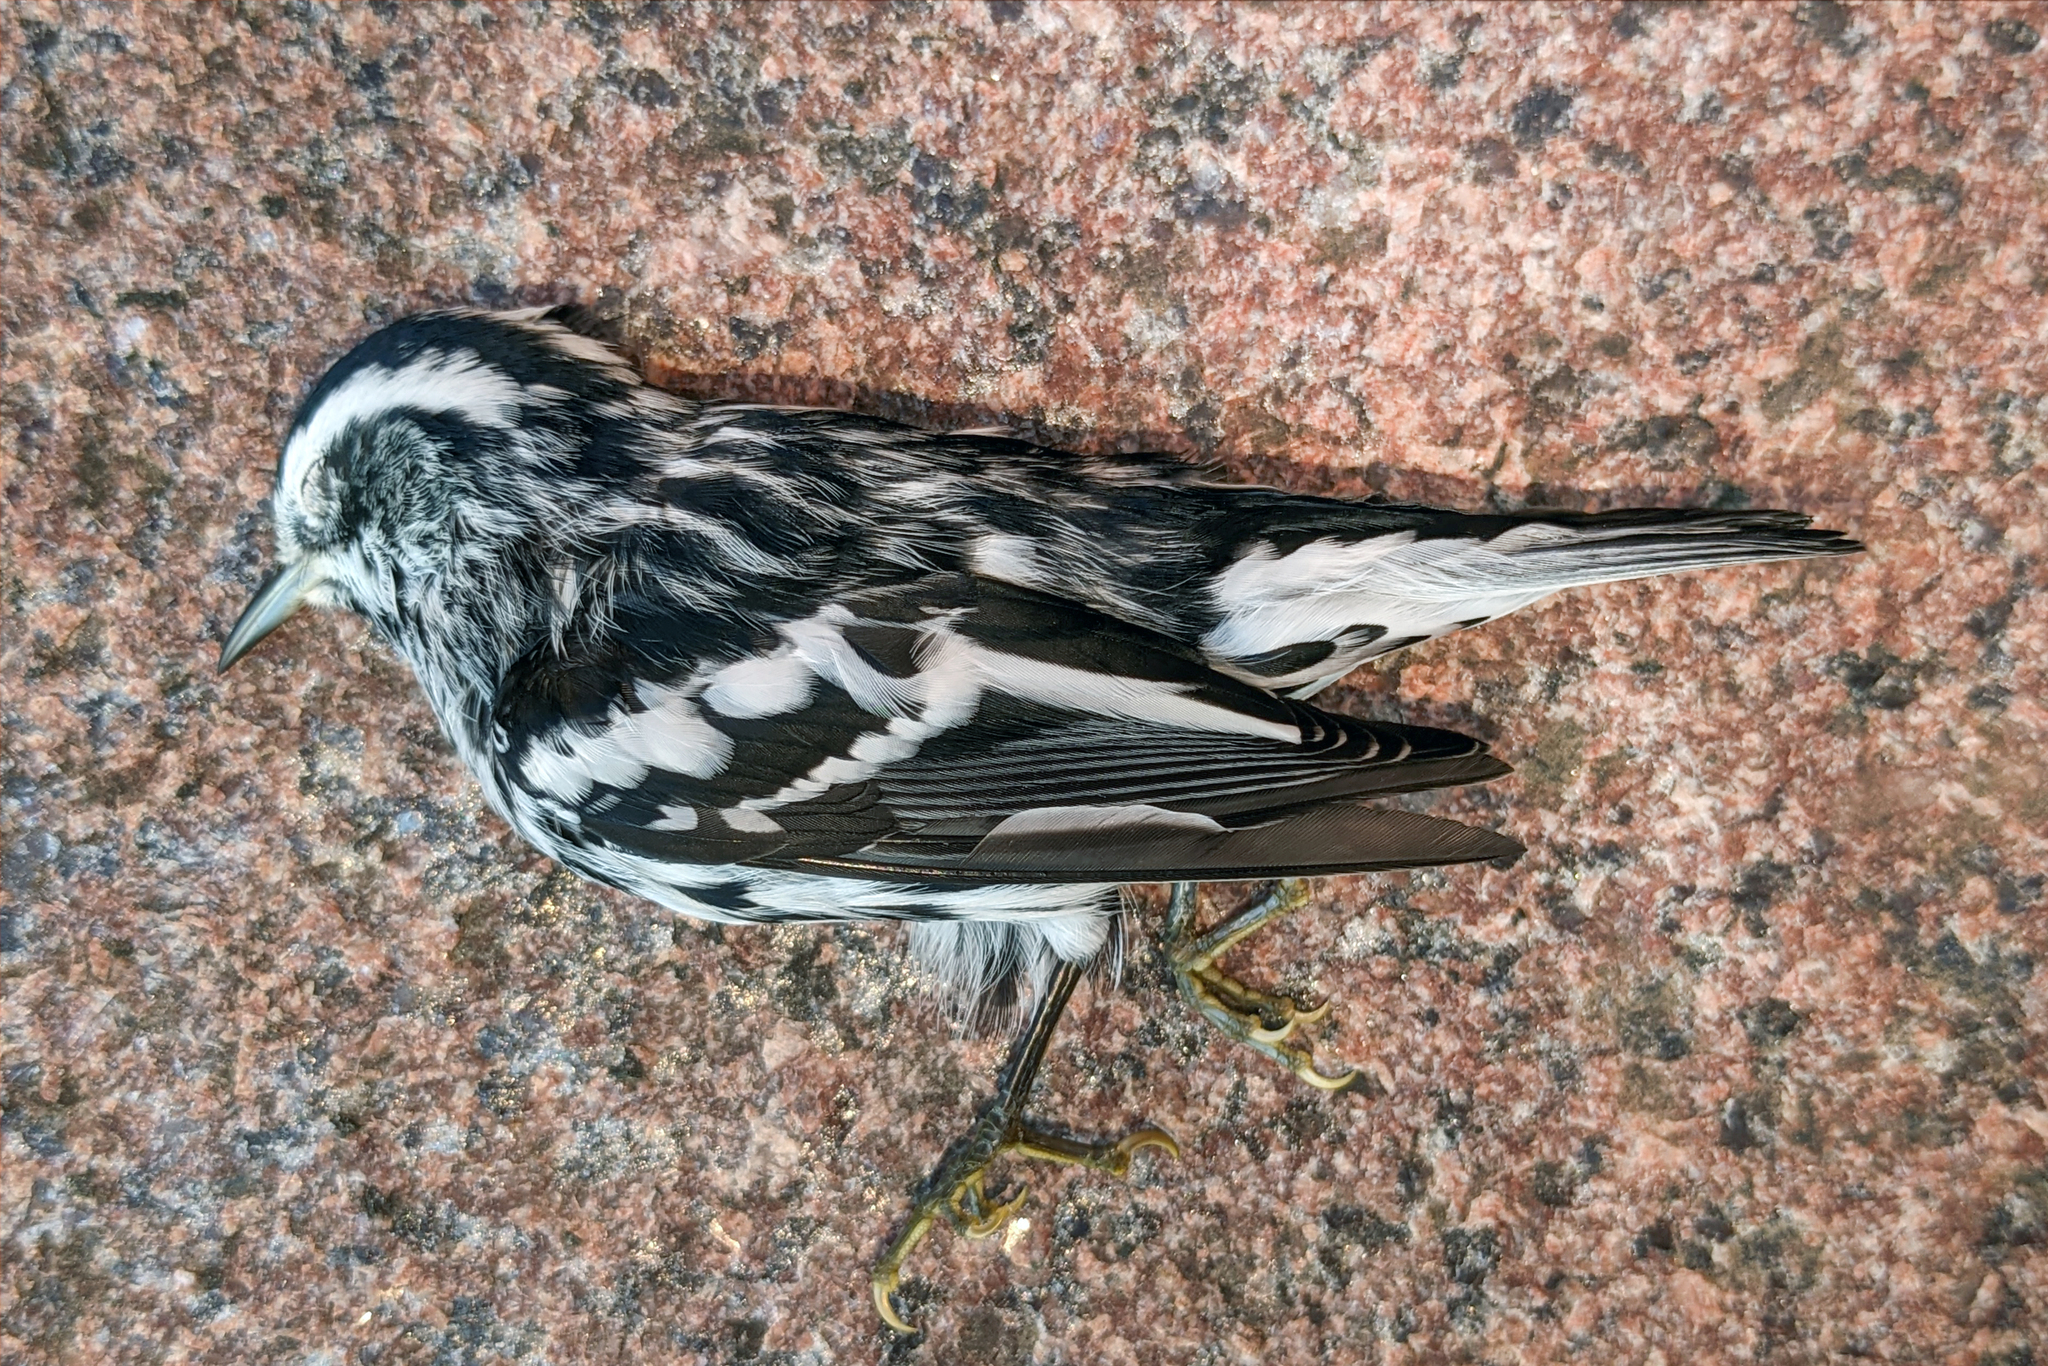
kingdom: Animalia
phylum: Chordata
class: Aves
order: Passeriformes
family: Parulidae
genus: Mniotilta
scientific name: Mniotilta varia
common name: Black-and-white warbler
